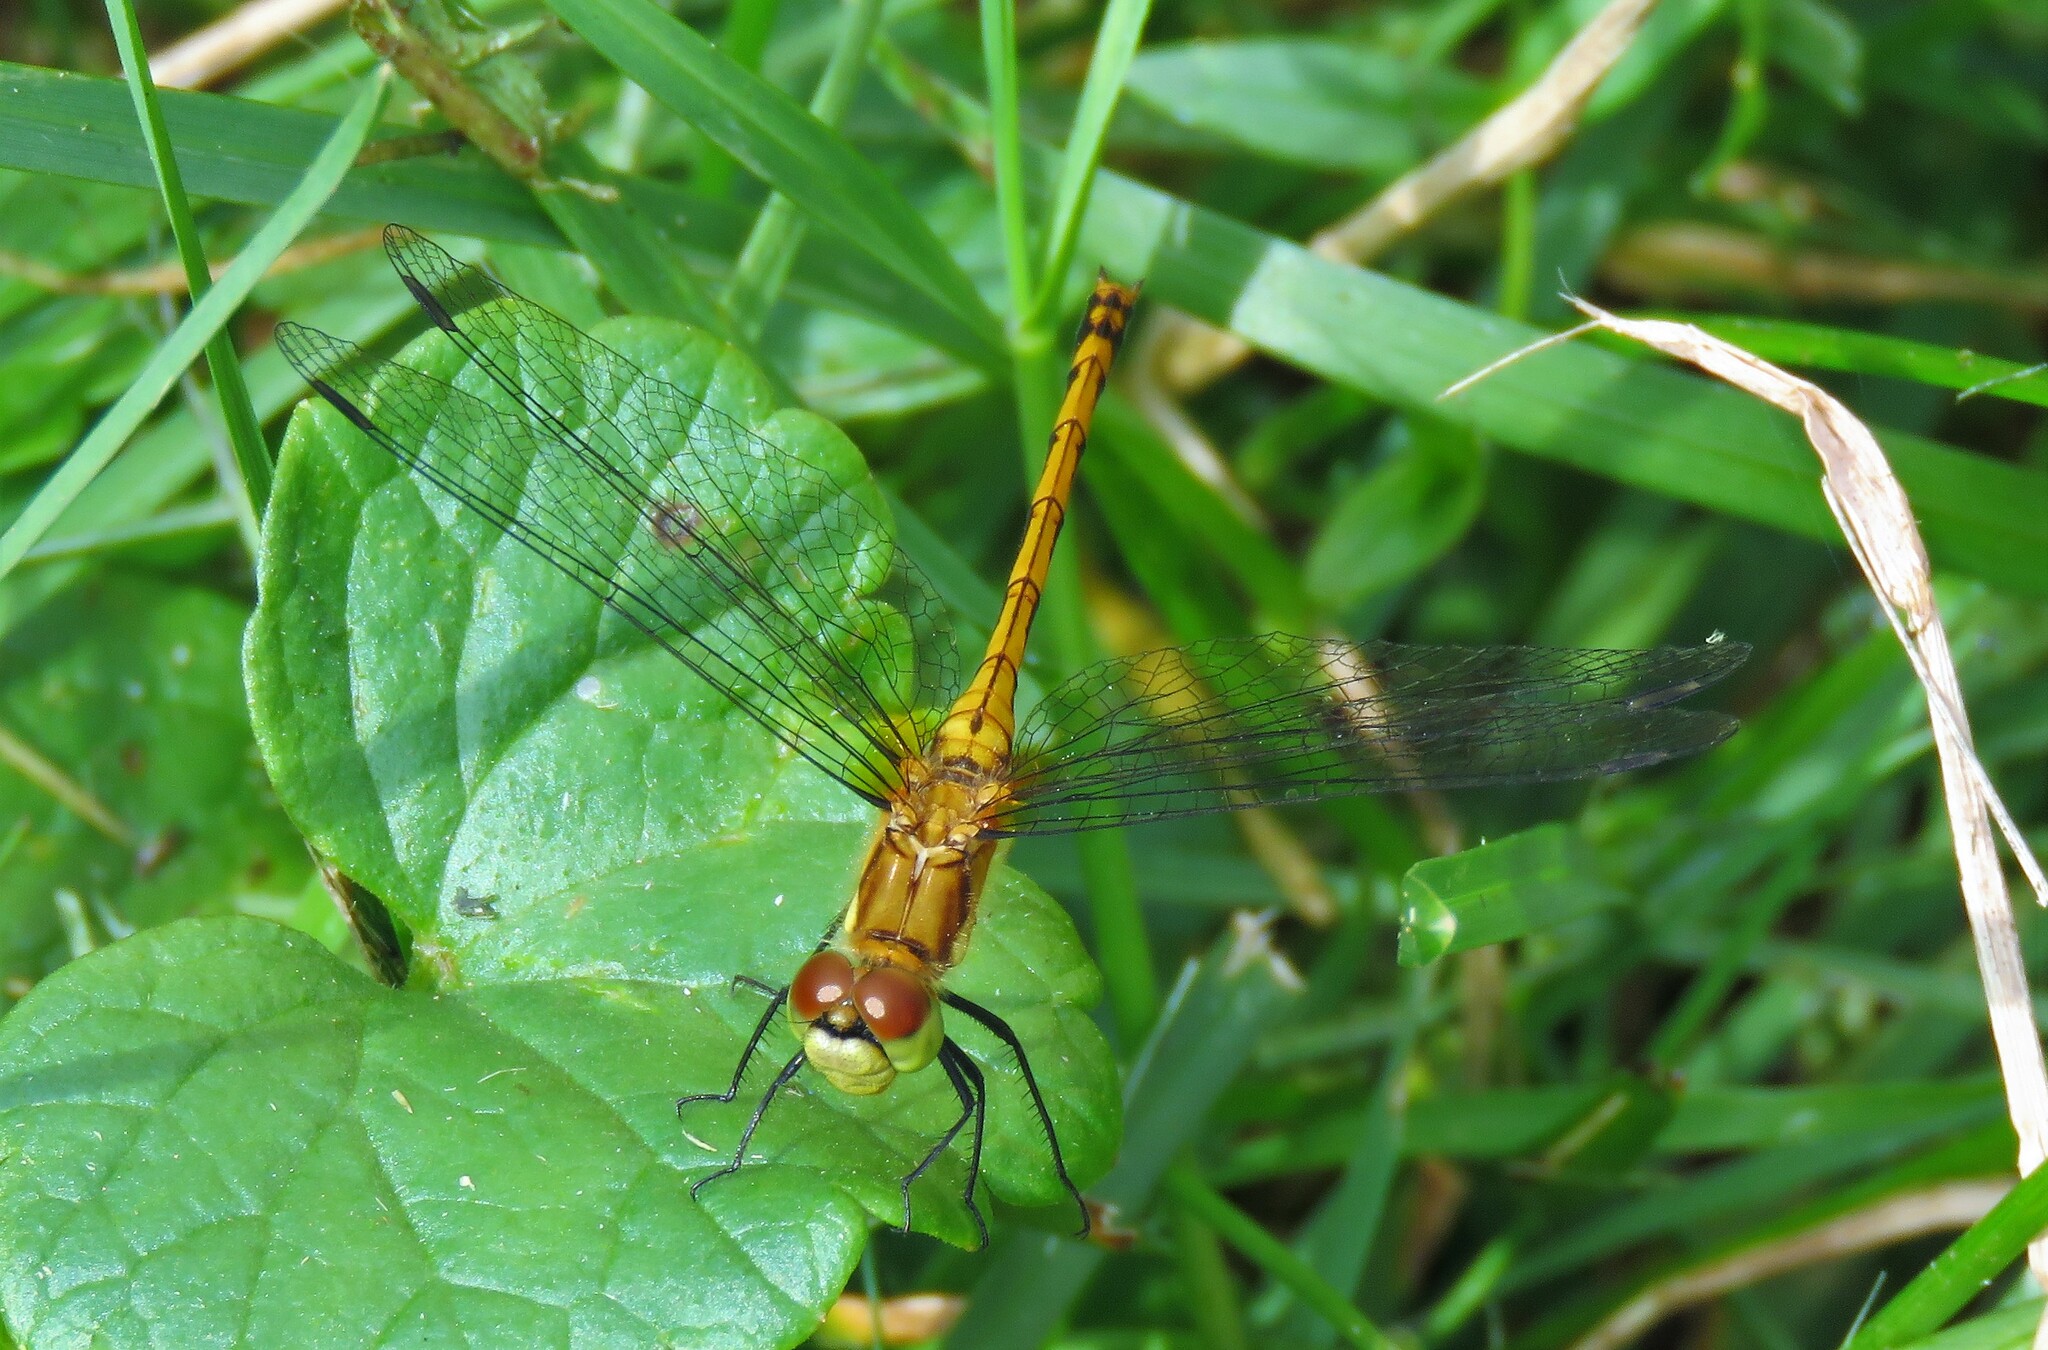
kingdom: Animalia
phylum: Arthropoda
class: Insecta
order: Odonata
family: Libellulidae
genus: Sympetrum
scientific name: Sympetrum obtrusum
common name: White-faced meadowhawk
